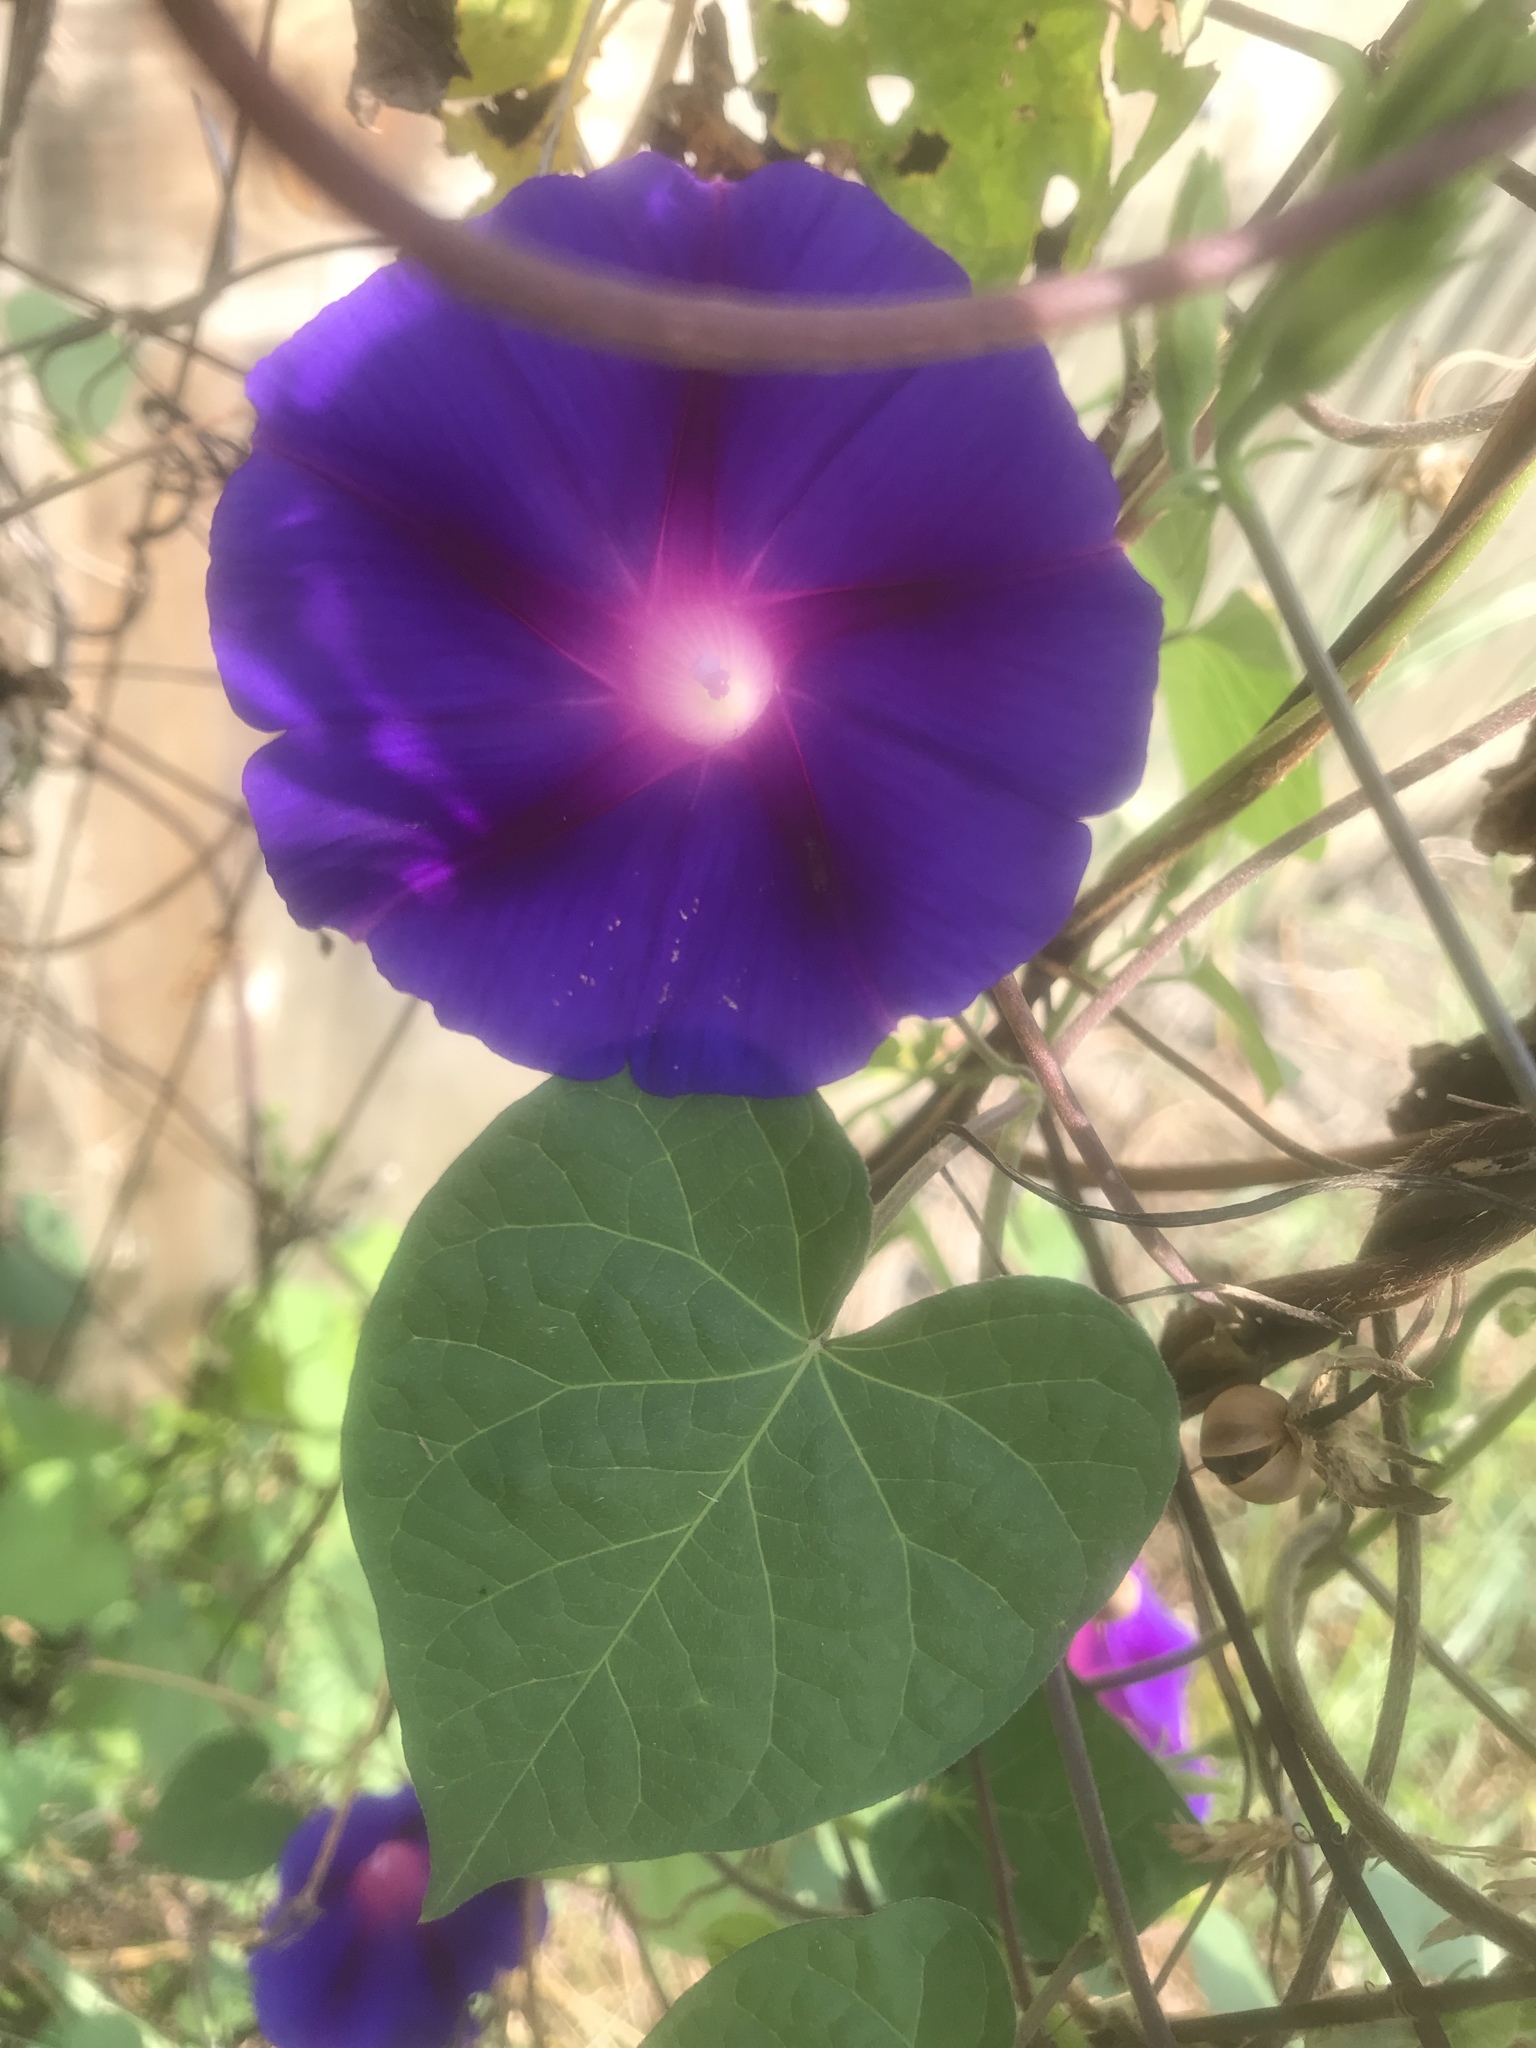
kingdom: Plantae
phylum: Tracheophyta
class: Magnoliopsida
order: Solanales
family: Convolvulaceae
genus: Ipomoea
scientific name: Ipomoea purpurea
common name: Common morning-glory
